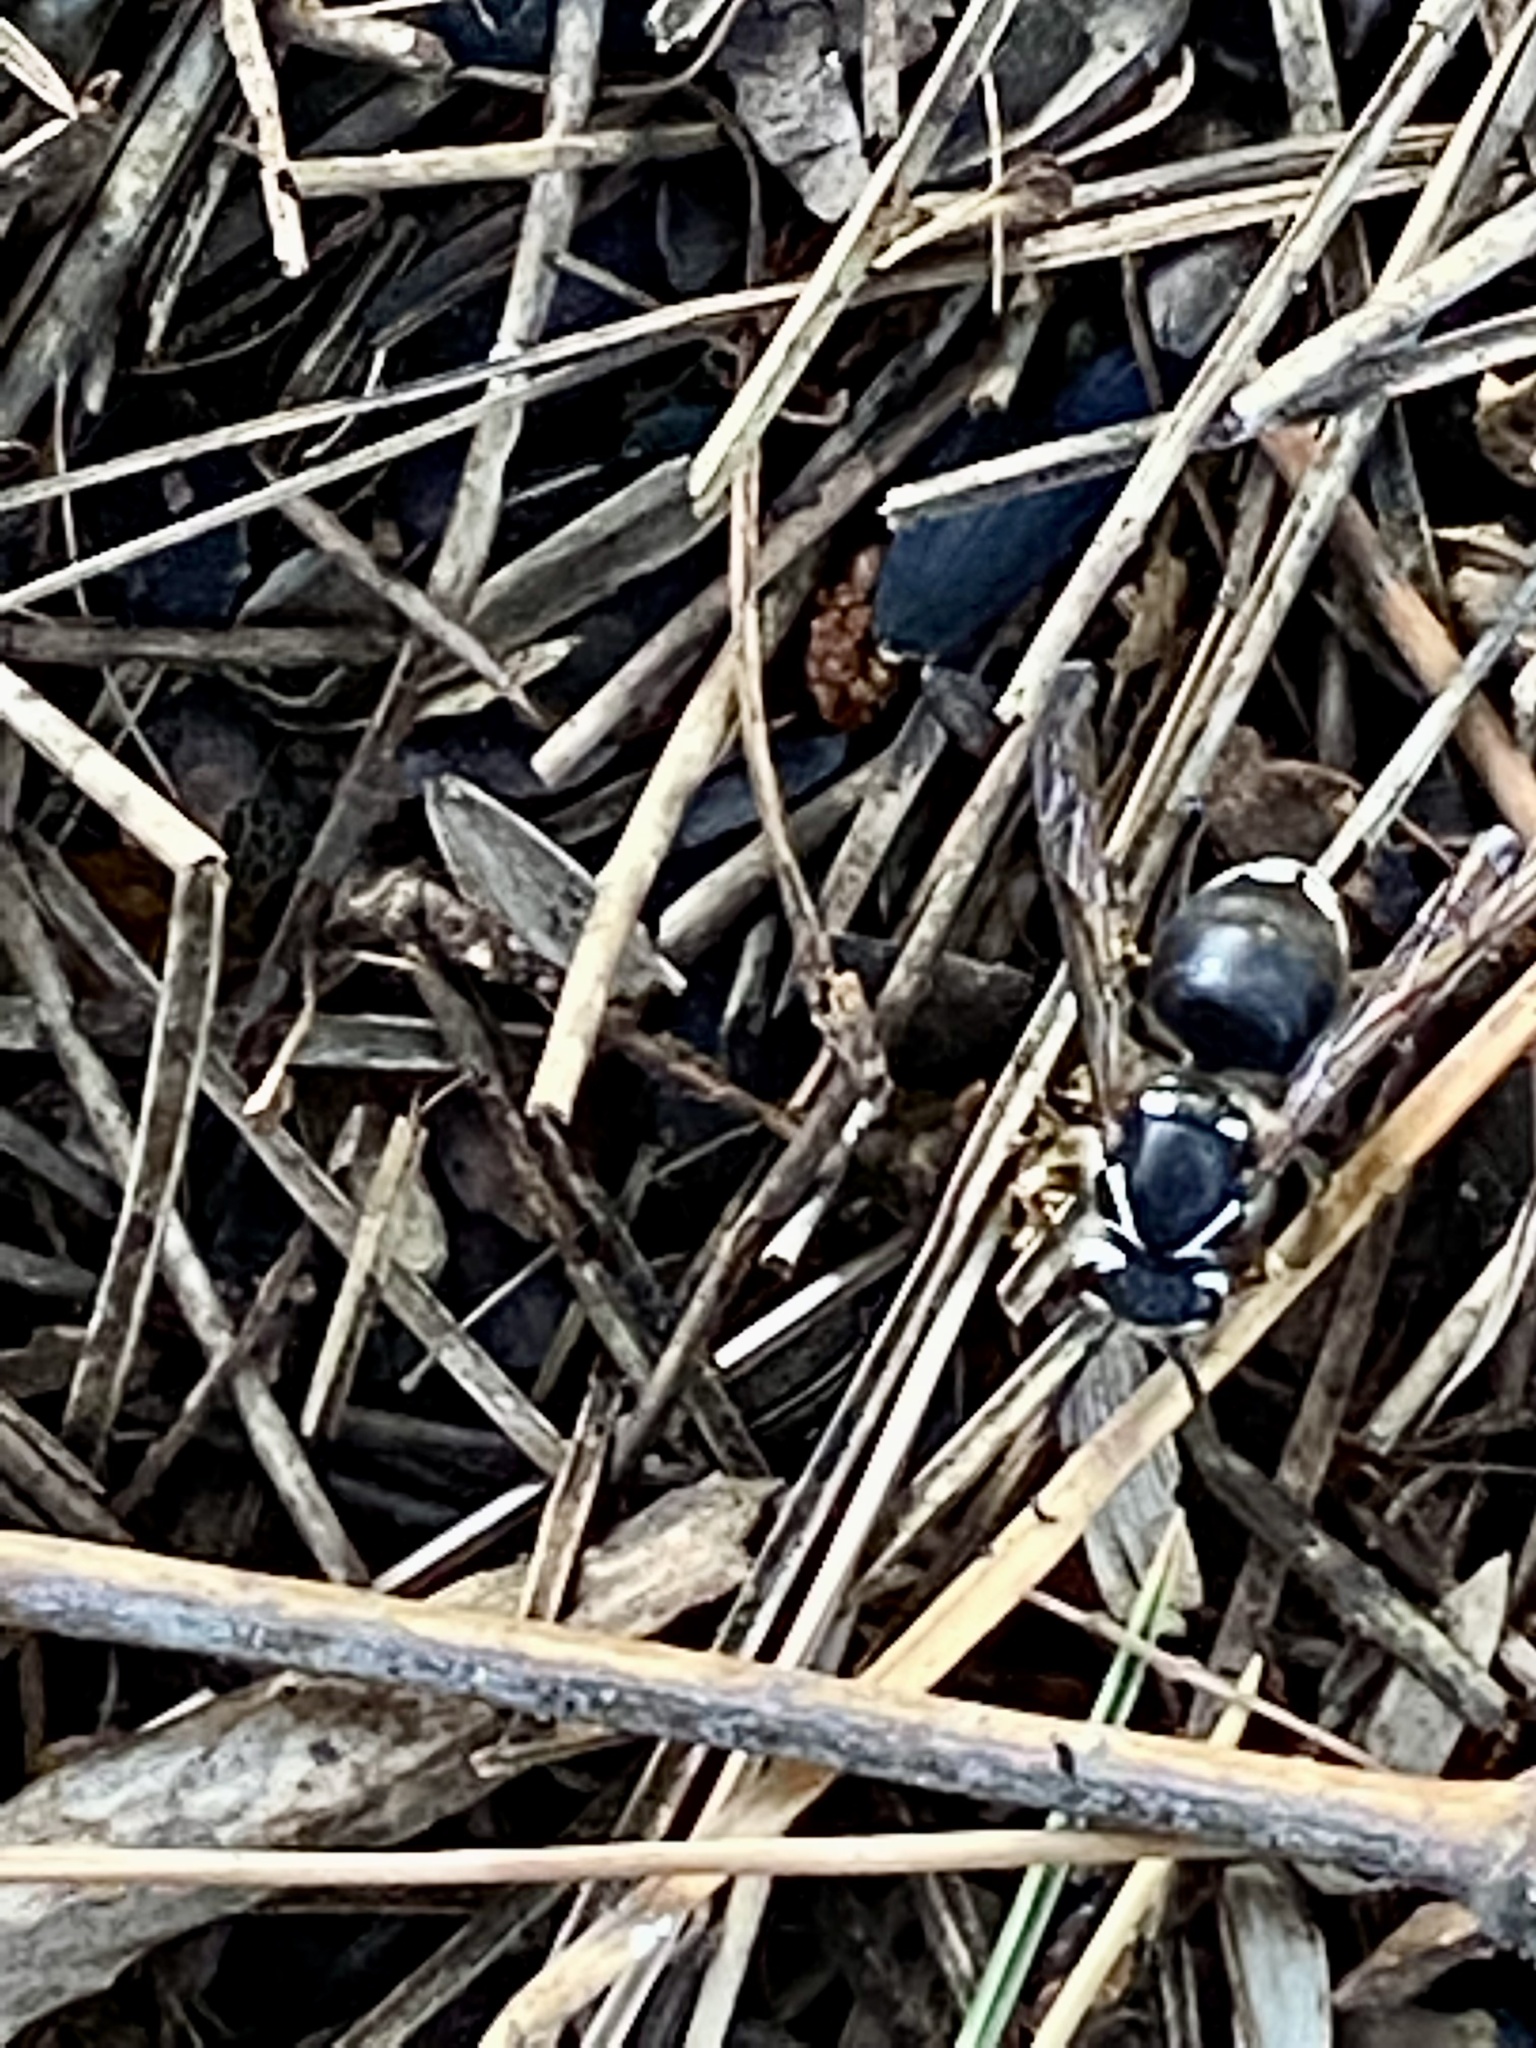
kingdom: Animalia
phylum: Arthropoda
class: Insecta
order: Hymenoptera
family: Vespidae
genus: Dolichovespula
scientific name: Dolichovespula maculata
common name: Bald-faced hornet
